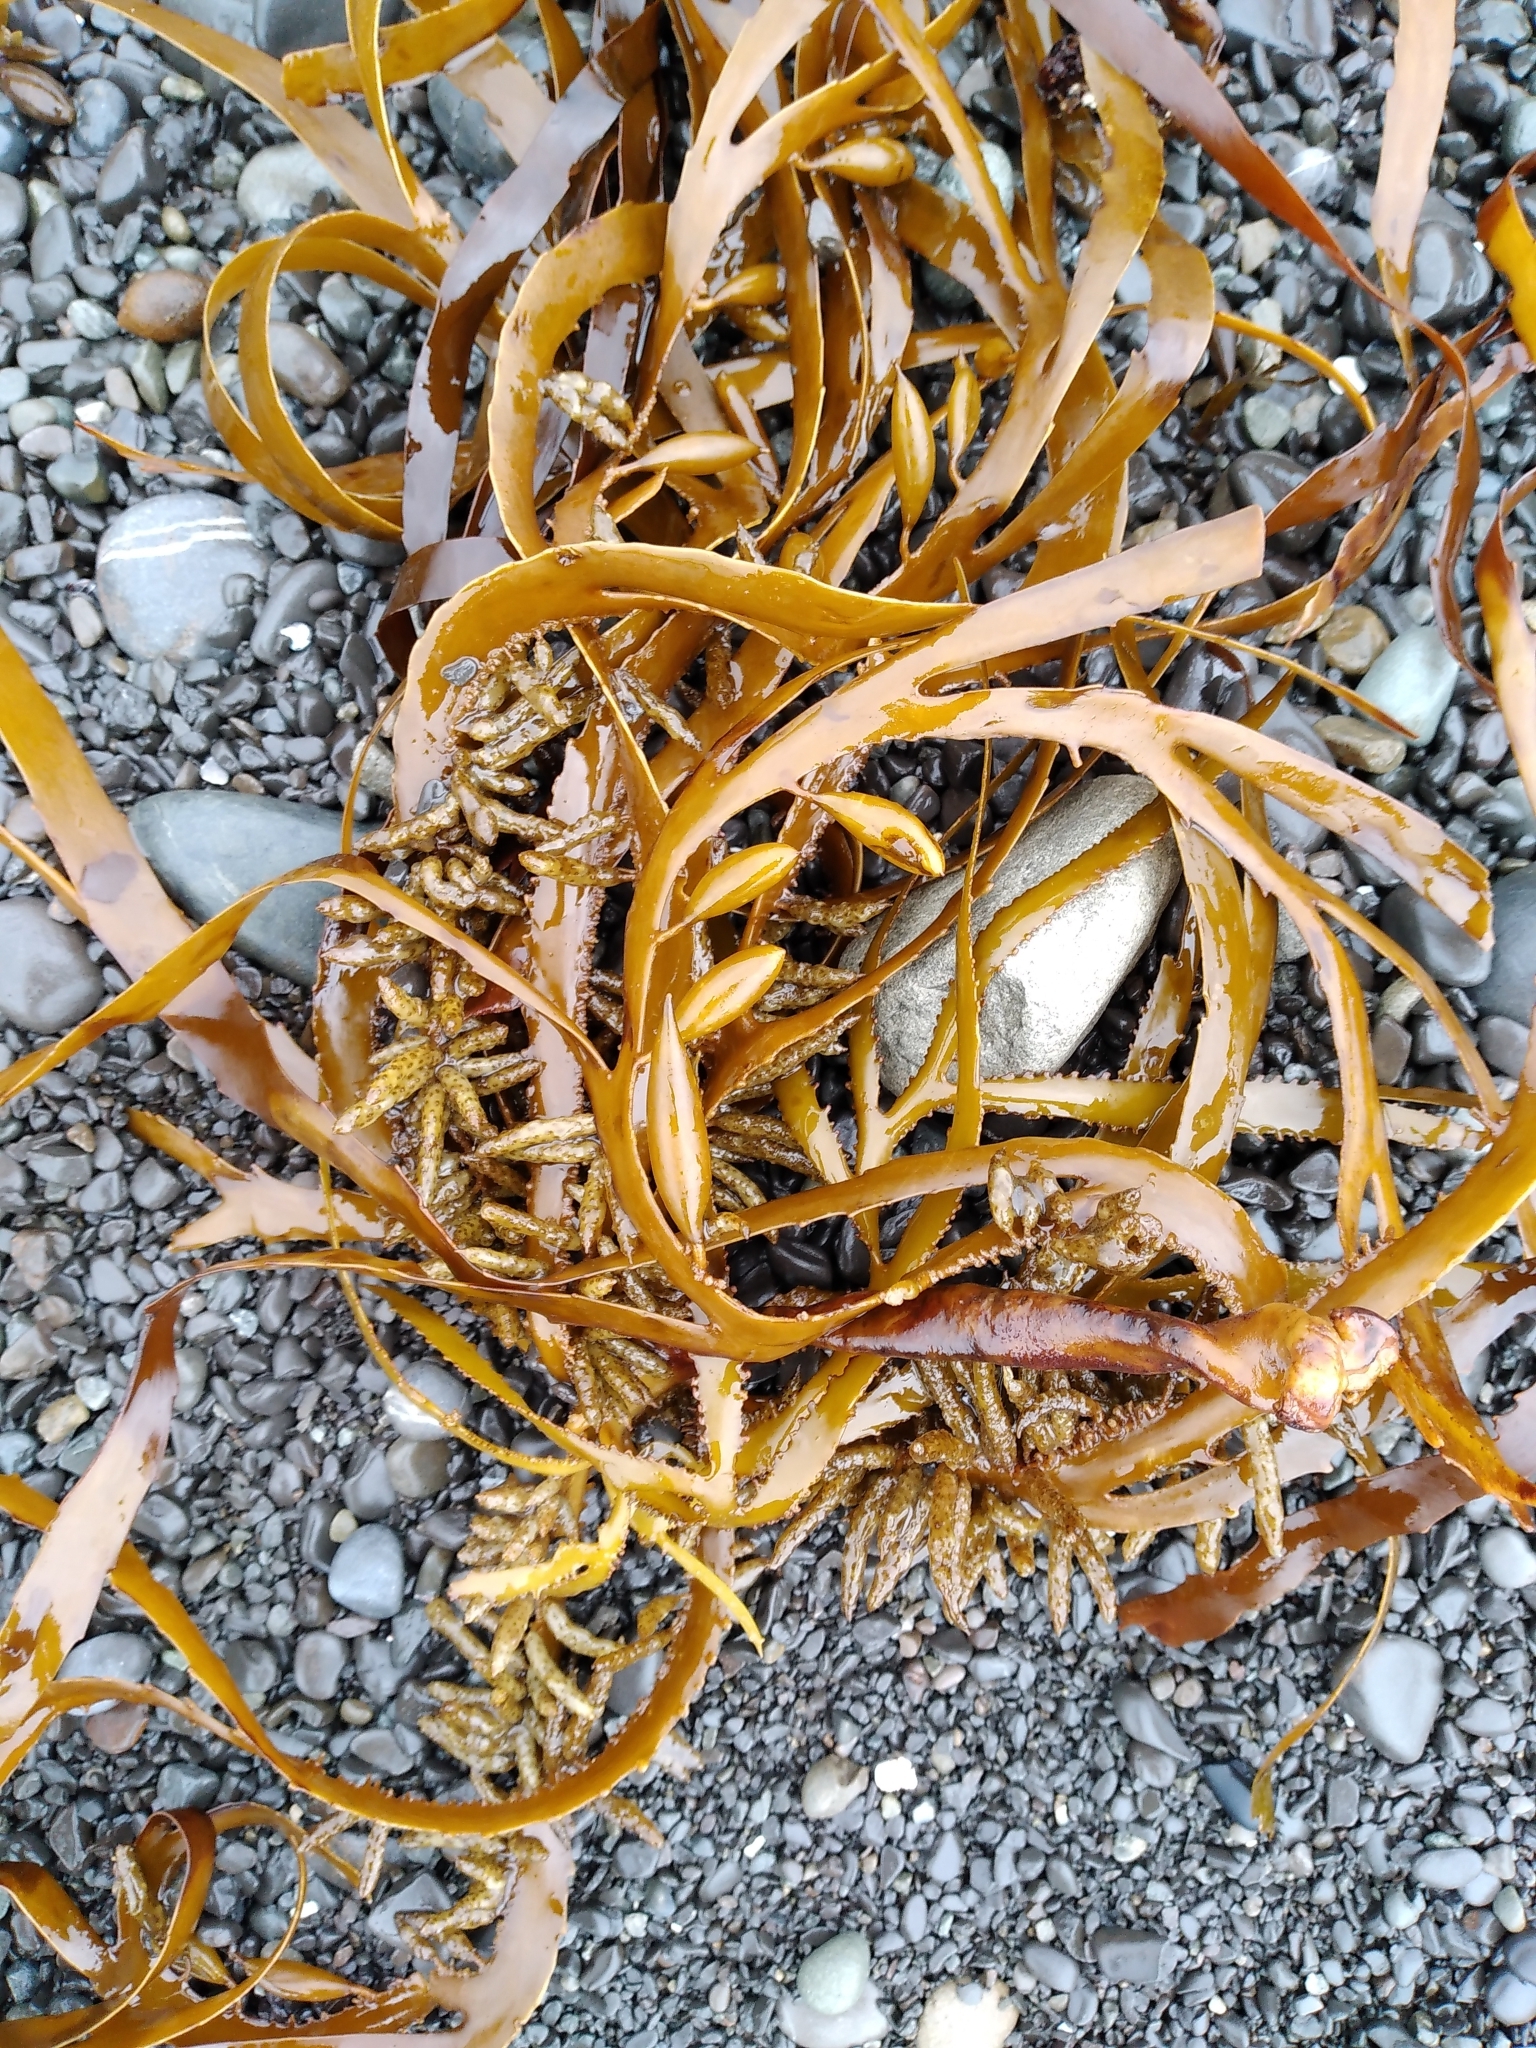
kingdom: Chromista
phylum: Ochrophyta
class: Phaeophyceae
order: Fucales
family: Seirococcaceae
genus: Marginariella
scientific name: Marginariella boryana
